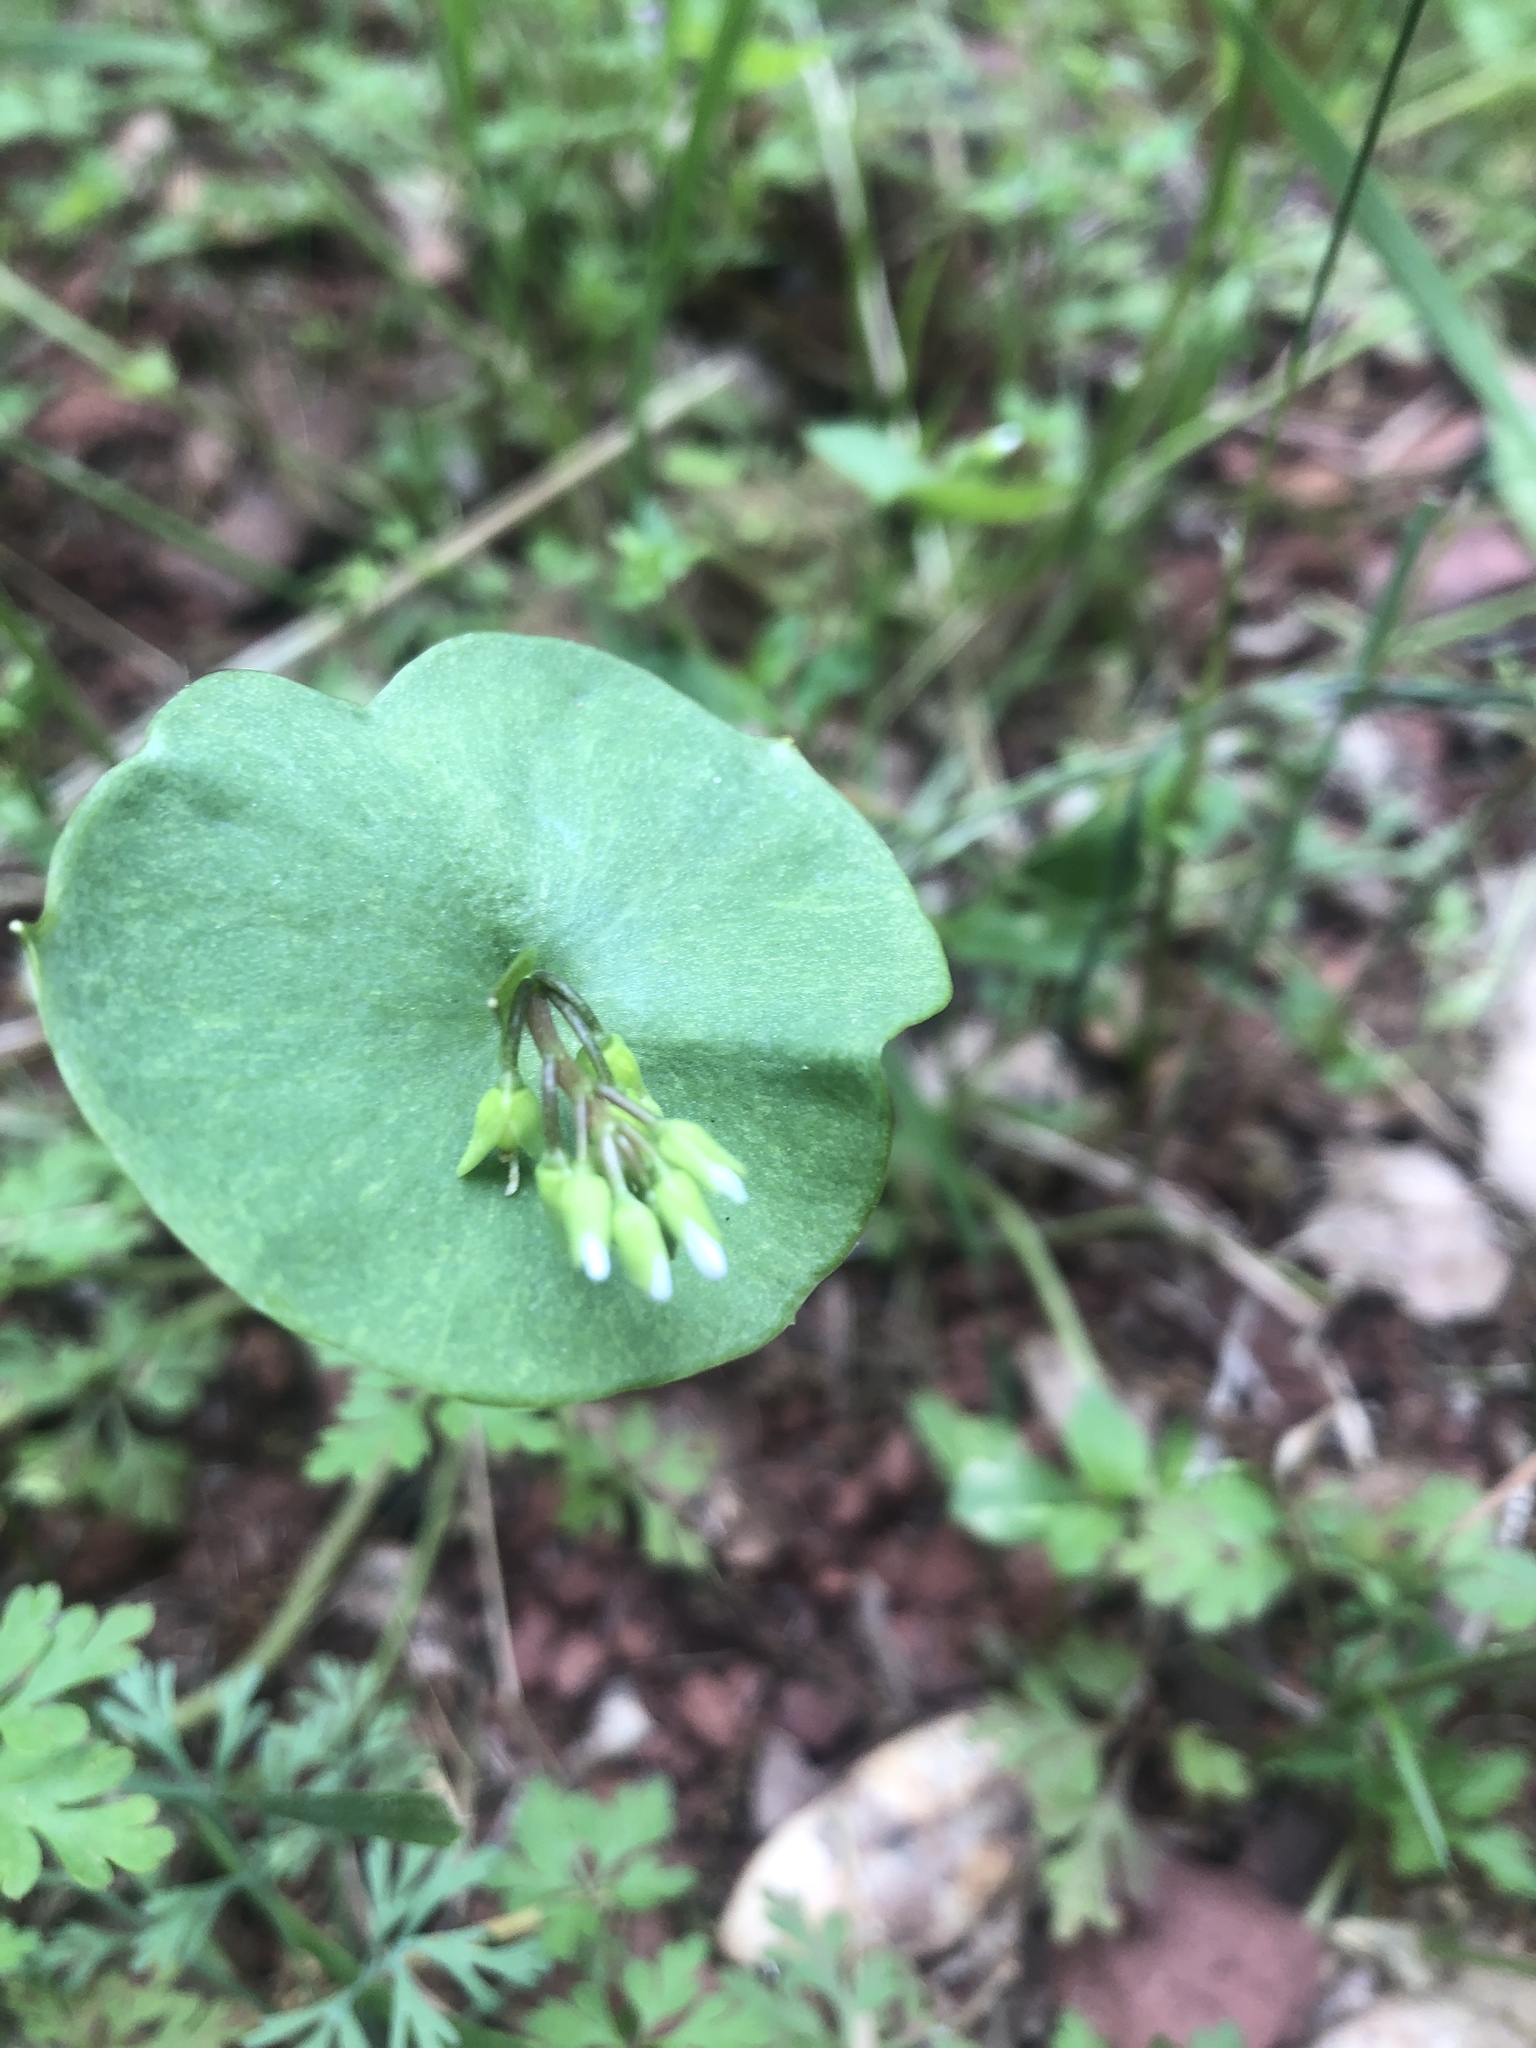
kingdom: Plantae
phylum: Tracheophyta
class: Magnoliopsida
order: Caryophyllales
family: Montiaceae
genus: Claytonia
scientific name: Claytonia perfoliata
